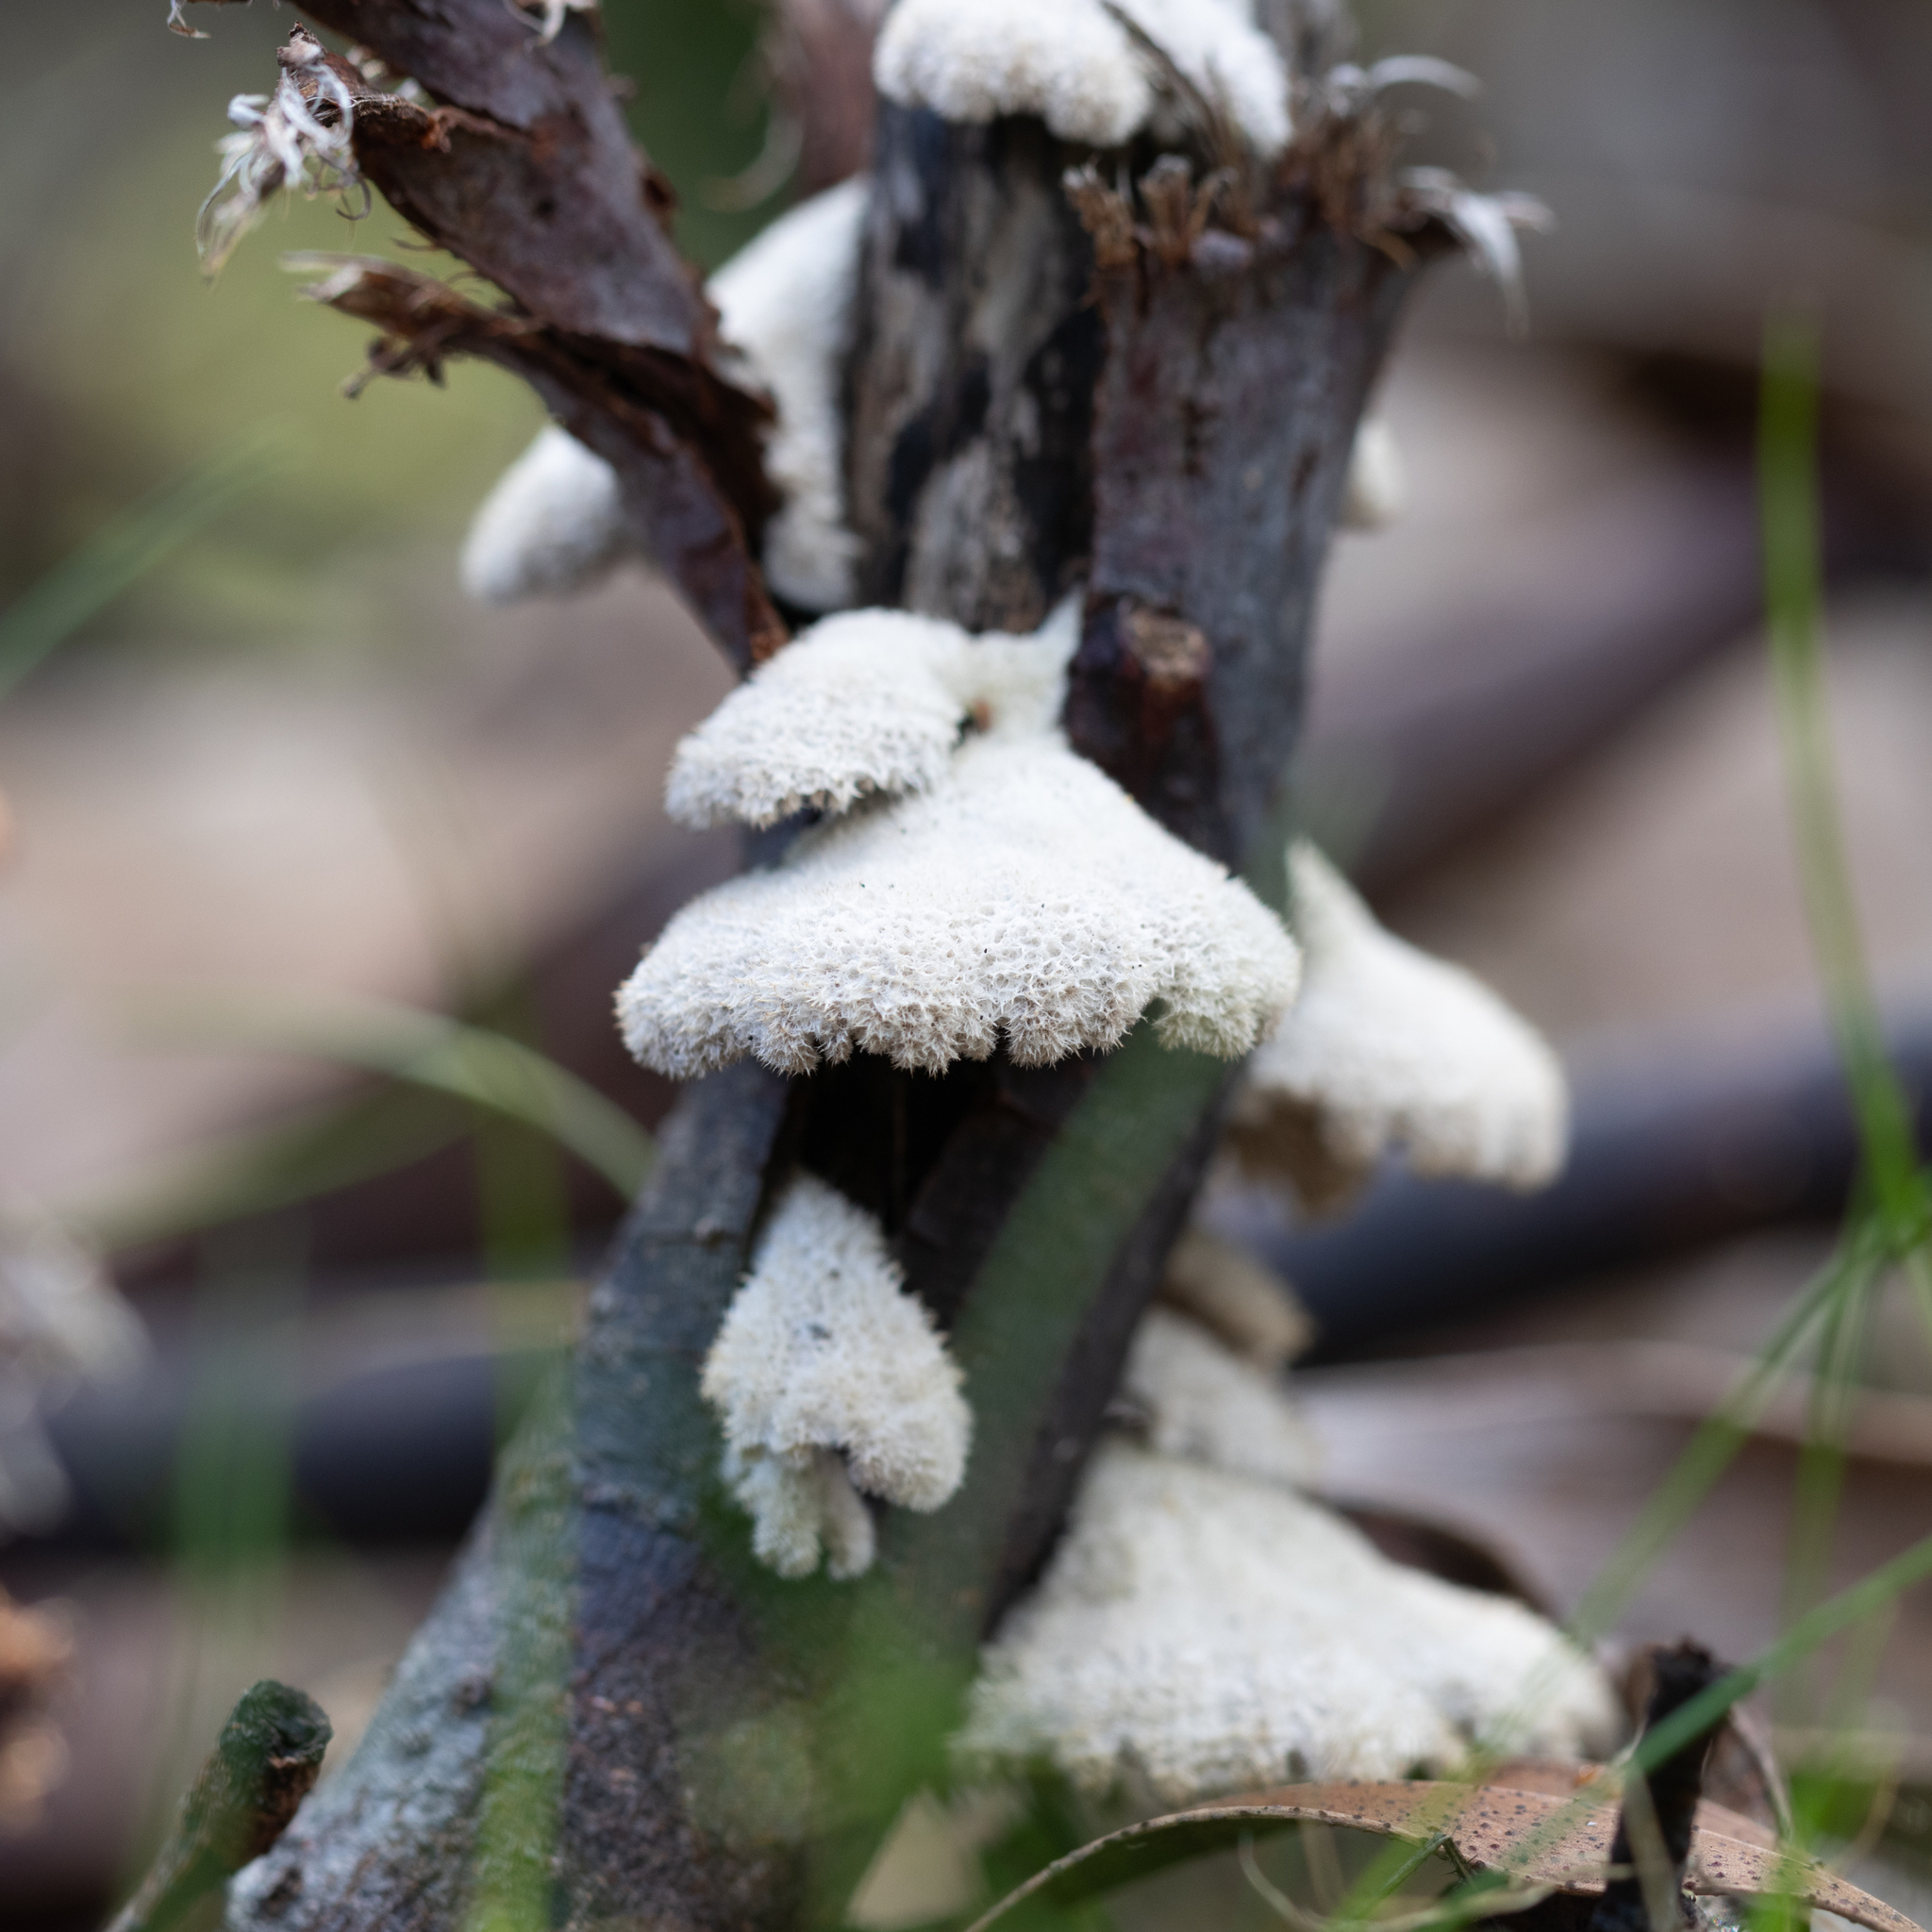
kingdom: Fungi
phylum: Basidiomycota
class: Agaricomycetes
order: Agaricales
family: Schizophyllaceae
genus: Schizophyllum
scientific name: Schizophyllum commune
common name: Common porecrust
